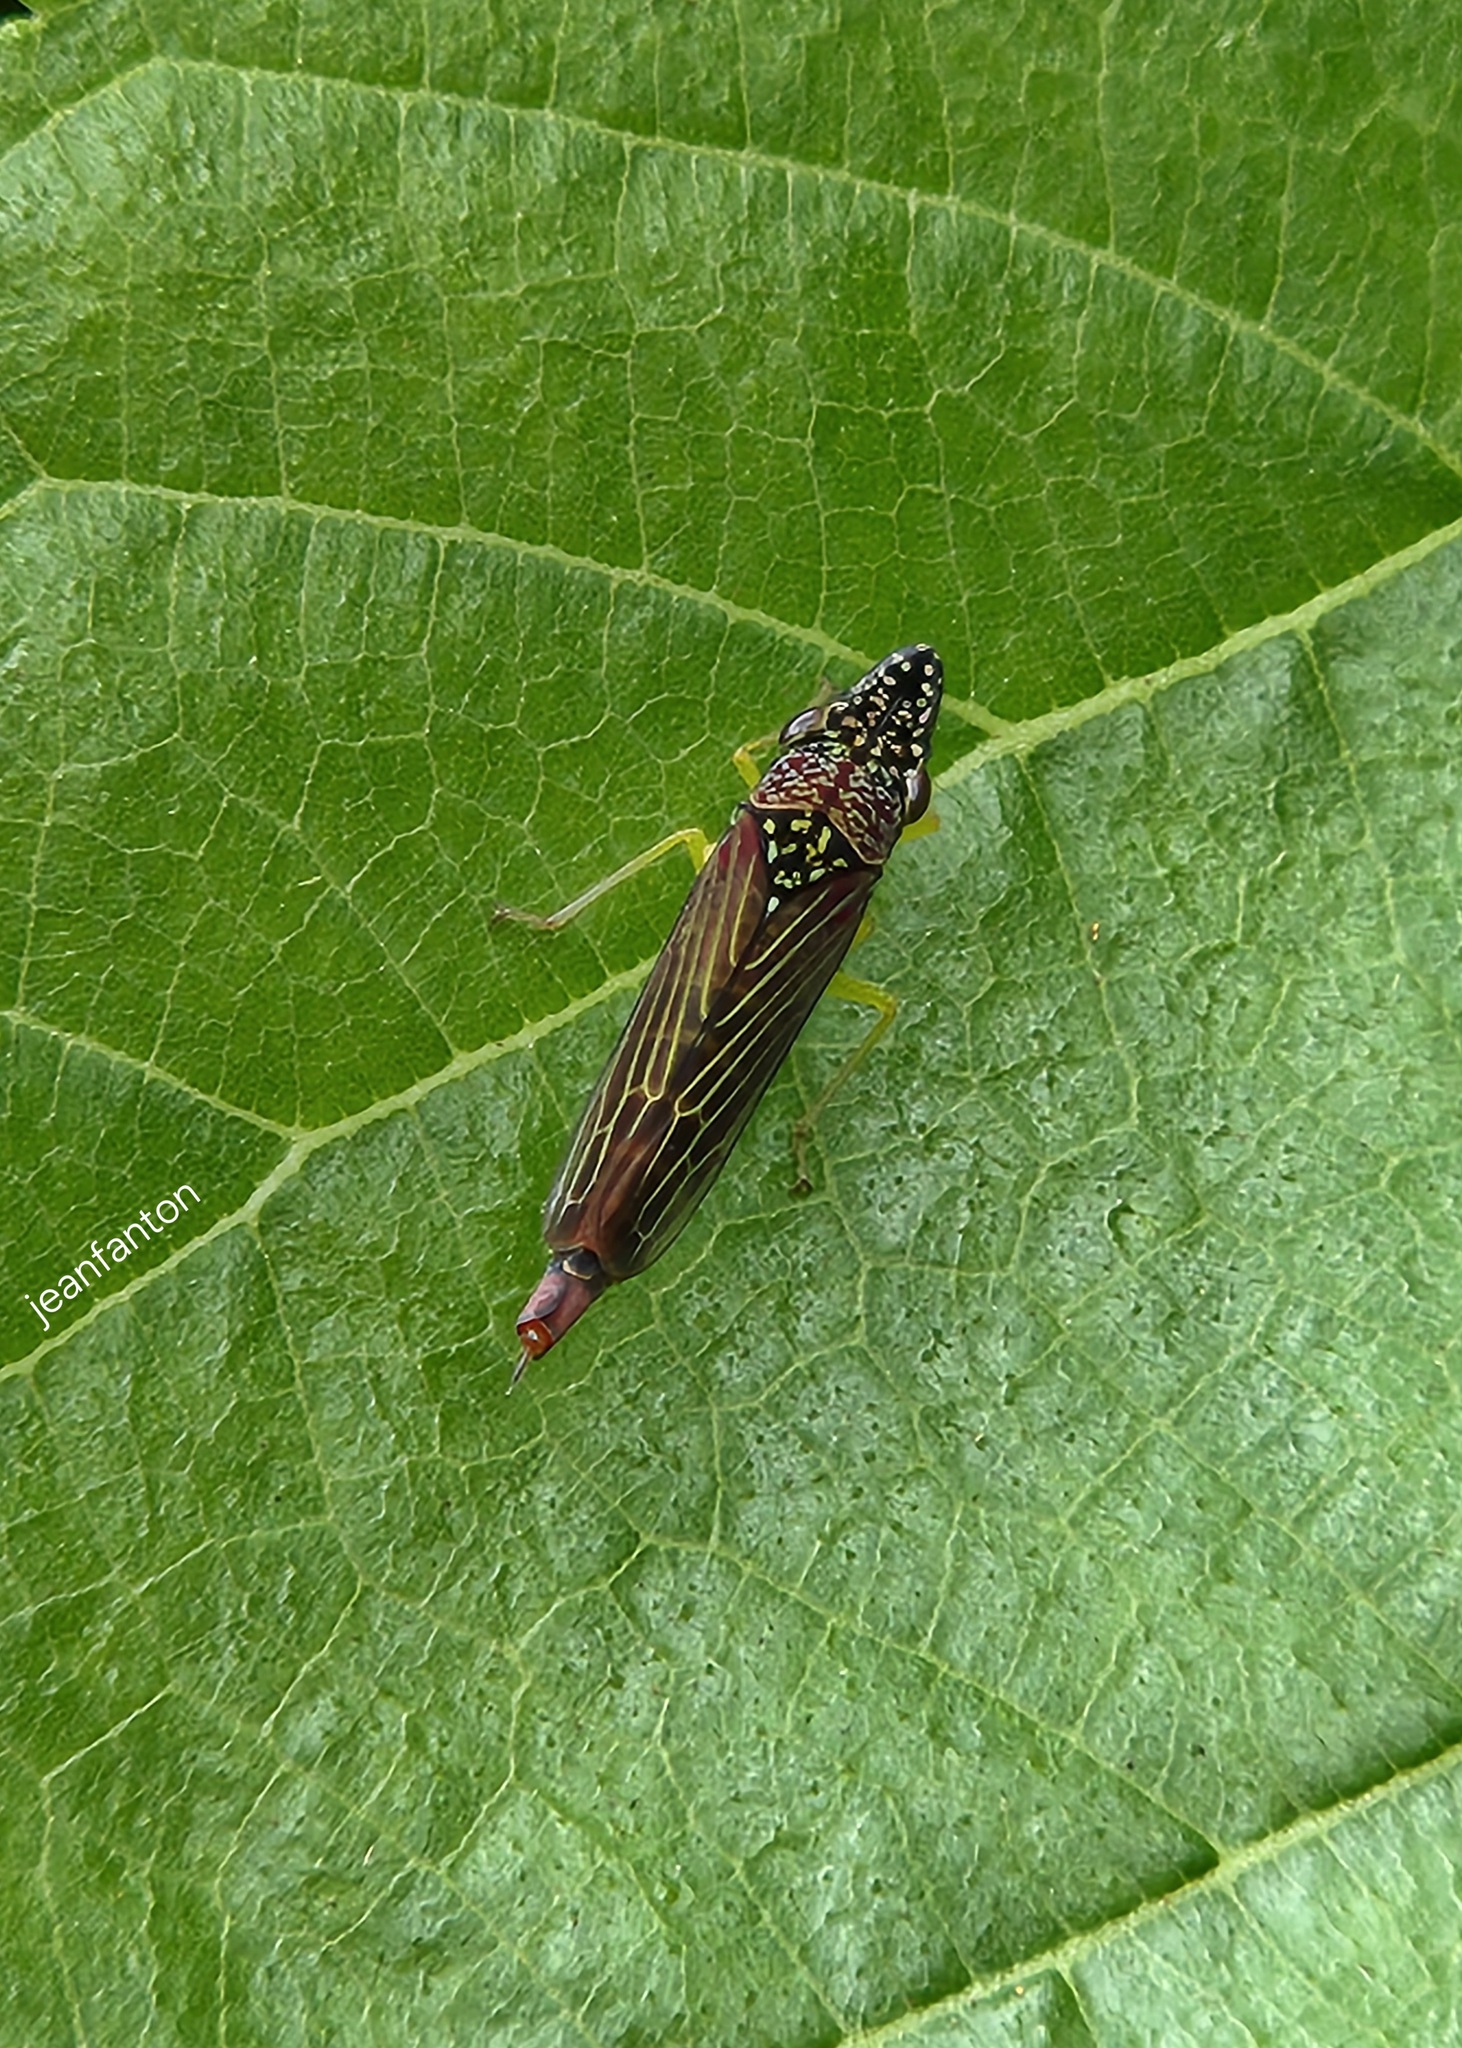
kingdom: Animalia
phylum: Arthropoda
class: Insecta
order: Hemiptera
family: Cicadellidae
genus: Acrogonia
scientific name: Acrogonia citrina
